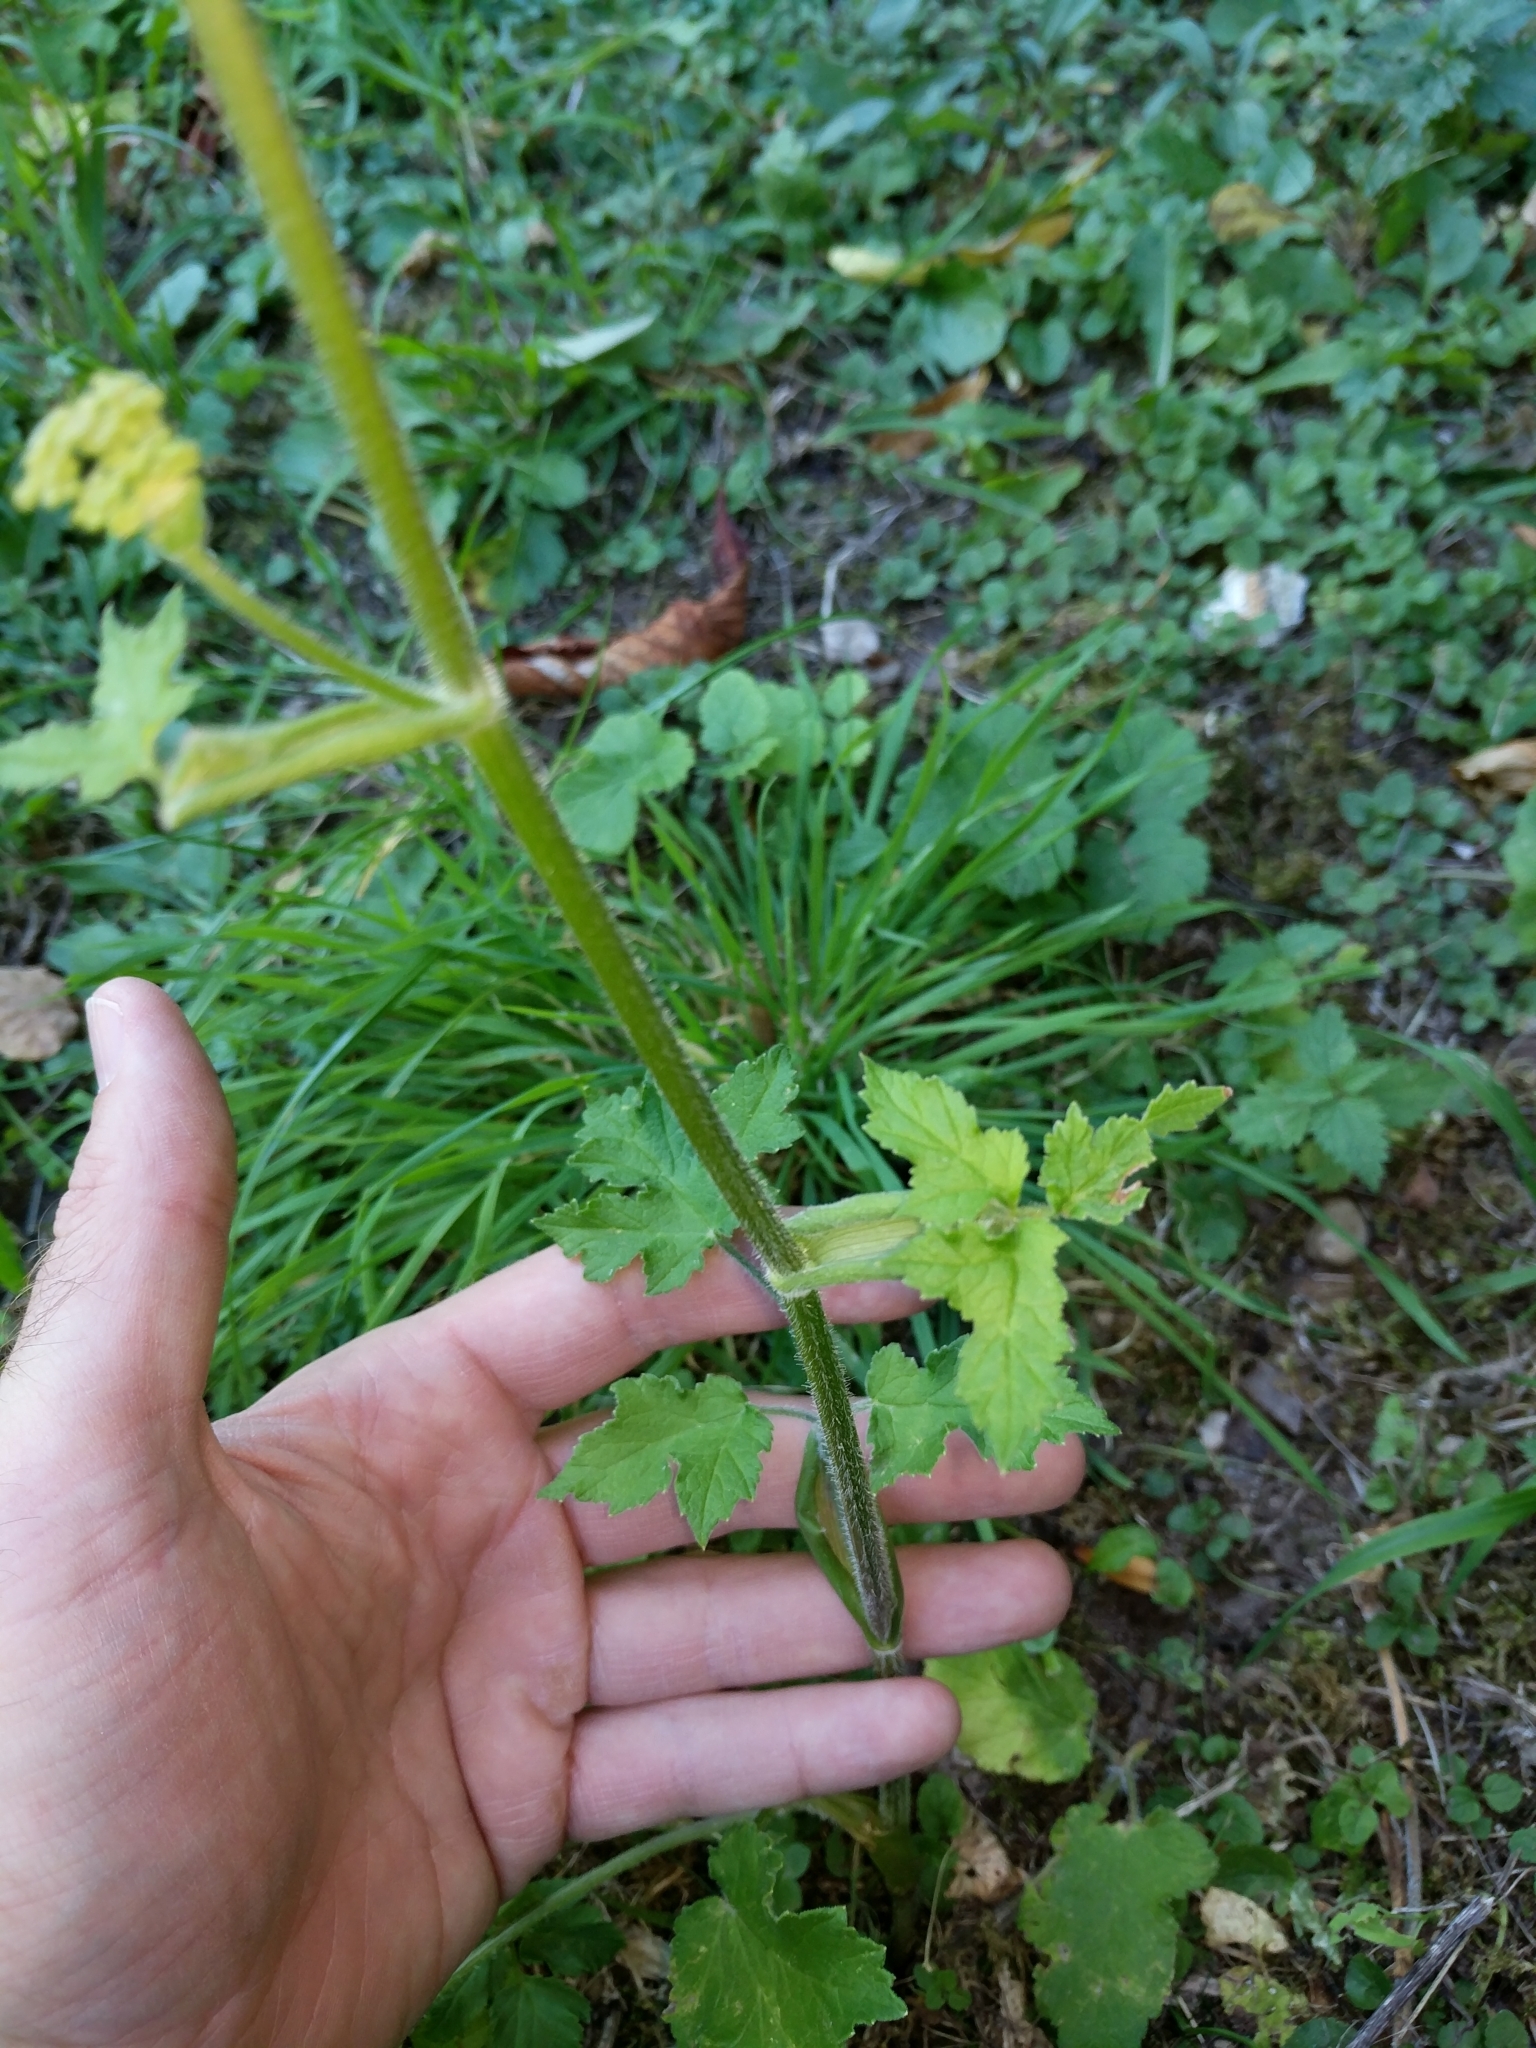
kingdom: Plantae
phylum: Tracheophyta
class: Magnoliopsida
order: Apiales
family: Apiaceae
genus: Heracleum
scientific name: Heracleum sphondylium
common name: Hogweed
